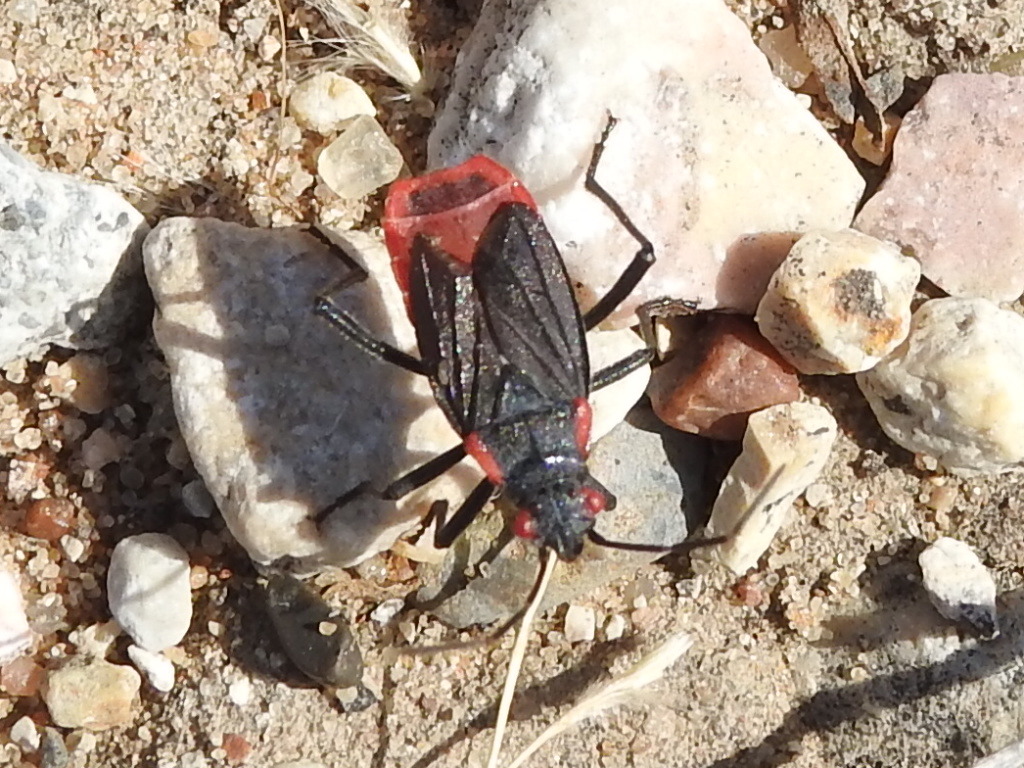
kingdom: Animalia
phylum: Arthropoda
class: Insecta
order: Hemiptera
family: Rhopalidae
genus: Jadera
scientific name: Jadera haematoloma
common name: Red-shouldered bug
